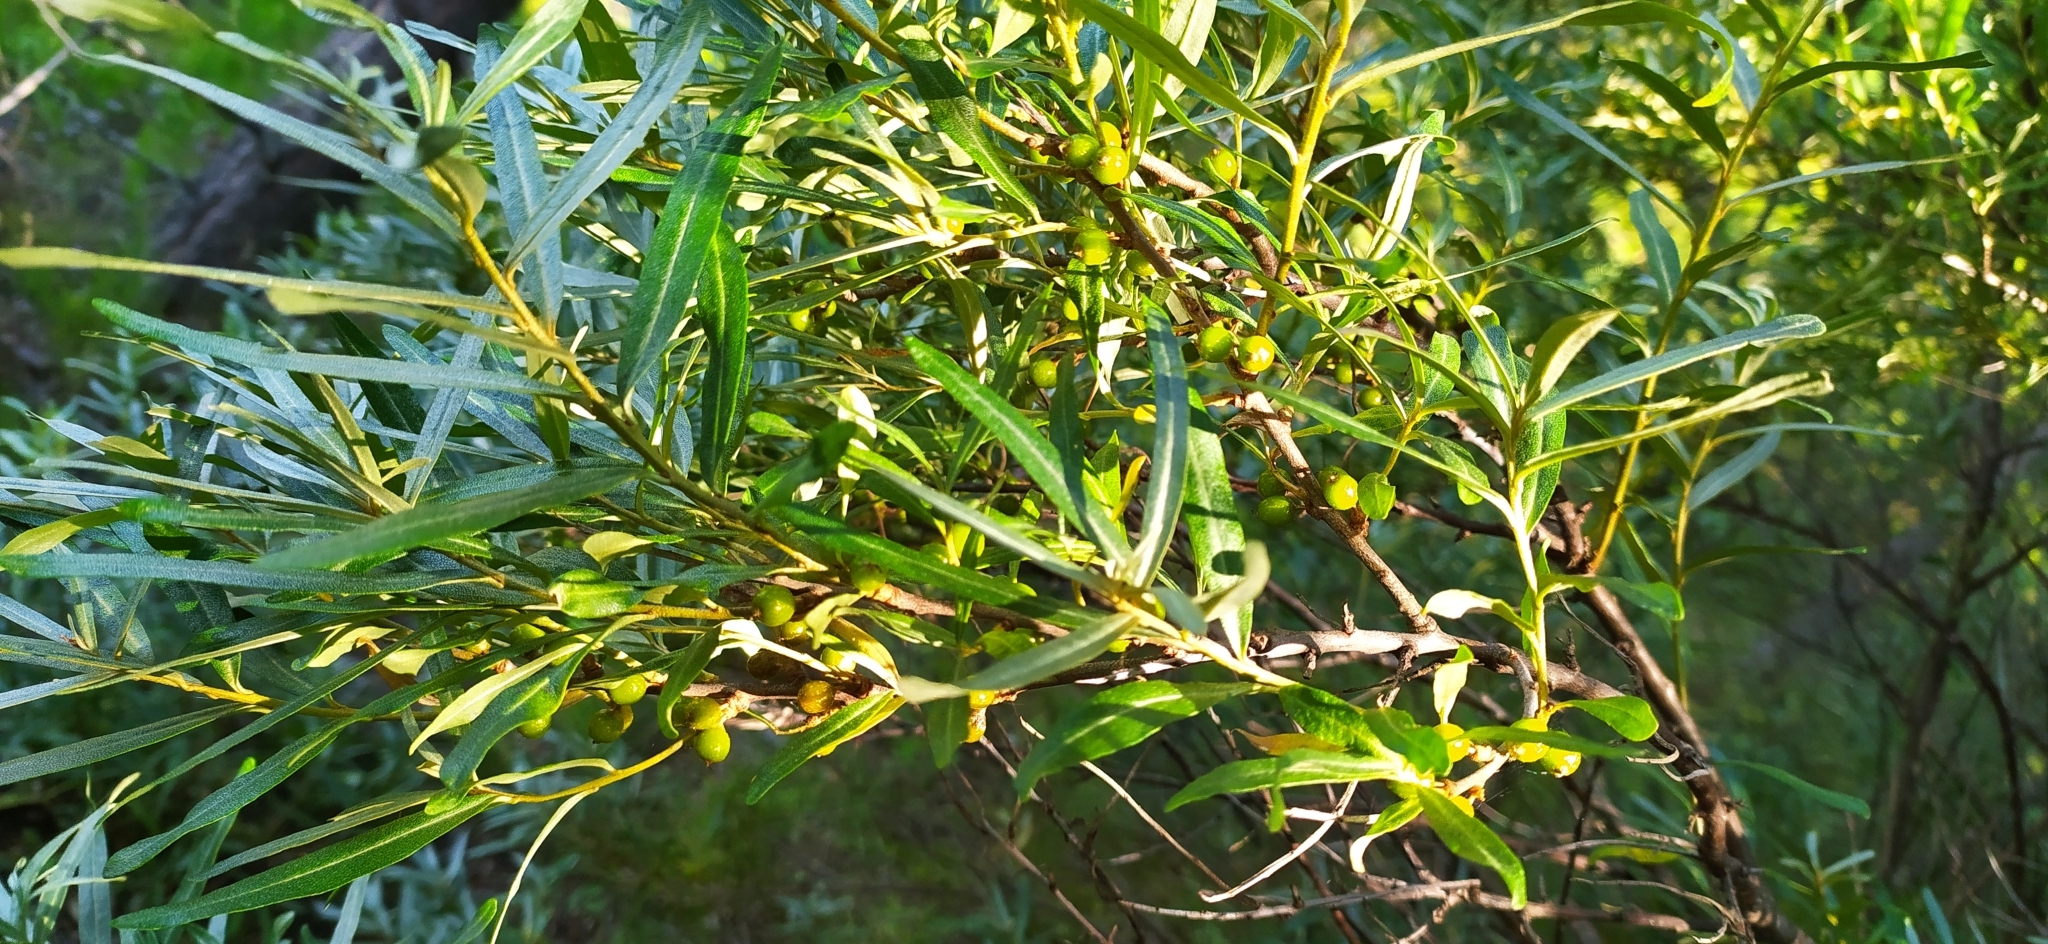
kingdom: Plantae
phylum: Tracheophyta
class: Magnoliopsida
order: Rosales
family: Elaeagnaceae
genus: Hippophae
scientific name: Hippophae rhamnoides
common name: Sea-buckthorn
